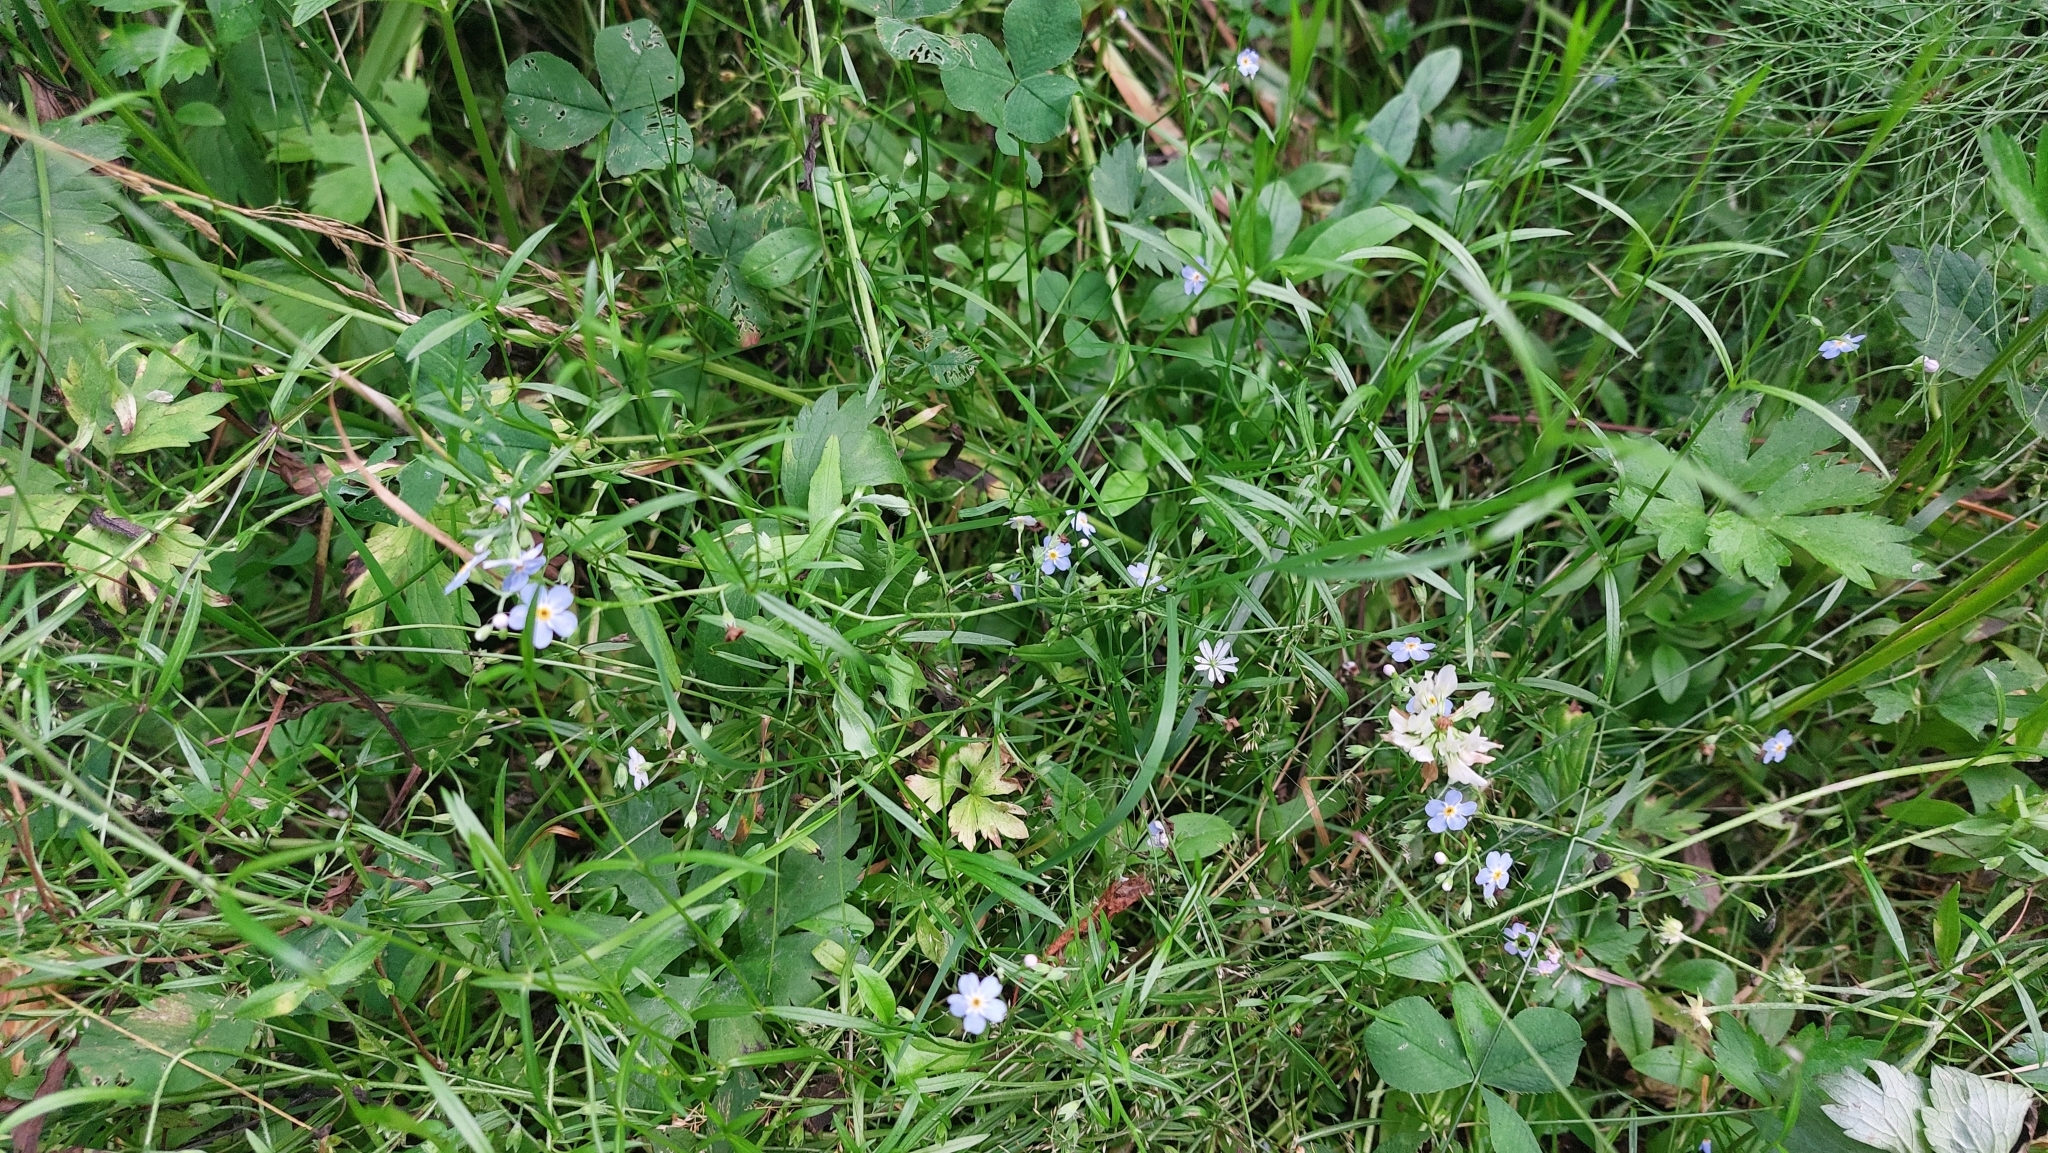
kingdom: Plantae
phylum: Tracheophyta
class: Magnoliopsida
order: Boraginales
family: Boraginaceae
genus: Myosotis
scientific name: Myosotis scorpioides
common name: Water forget-me-not
